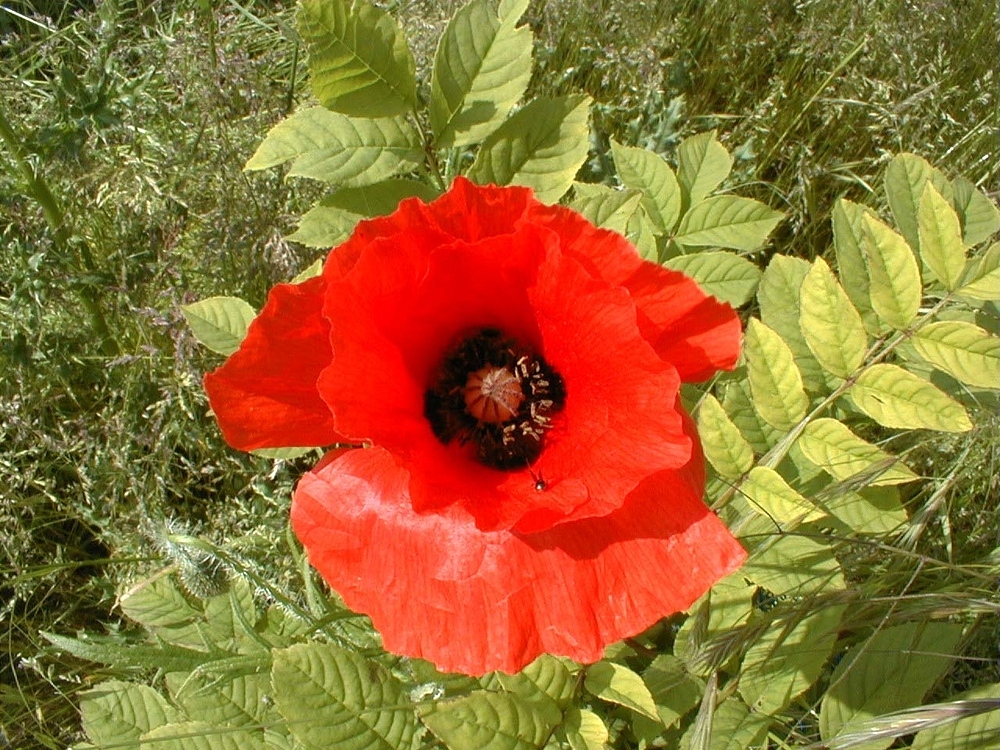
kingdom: Plantae
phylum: Tracheophyta
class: Magnoliopsida
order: Ranunculales
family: Papaveraceae
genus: Papaver
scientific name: Papaver rhoeas
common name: Corn poppy
